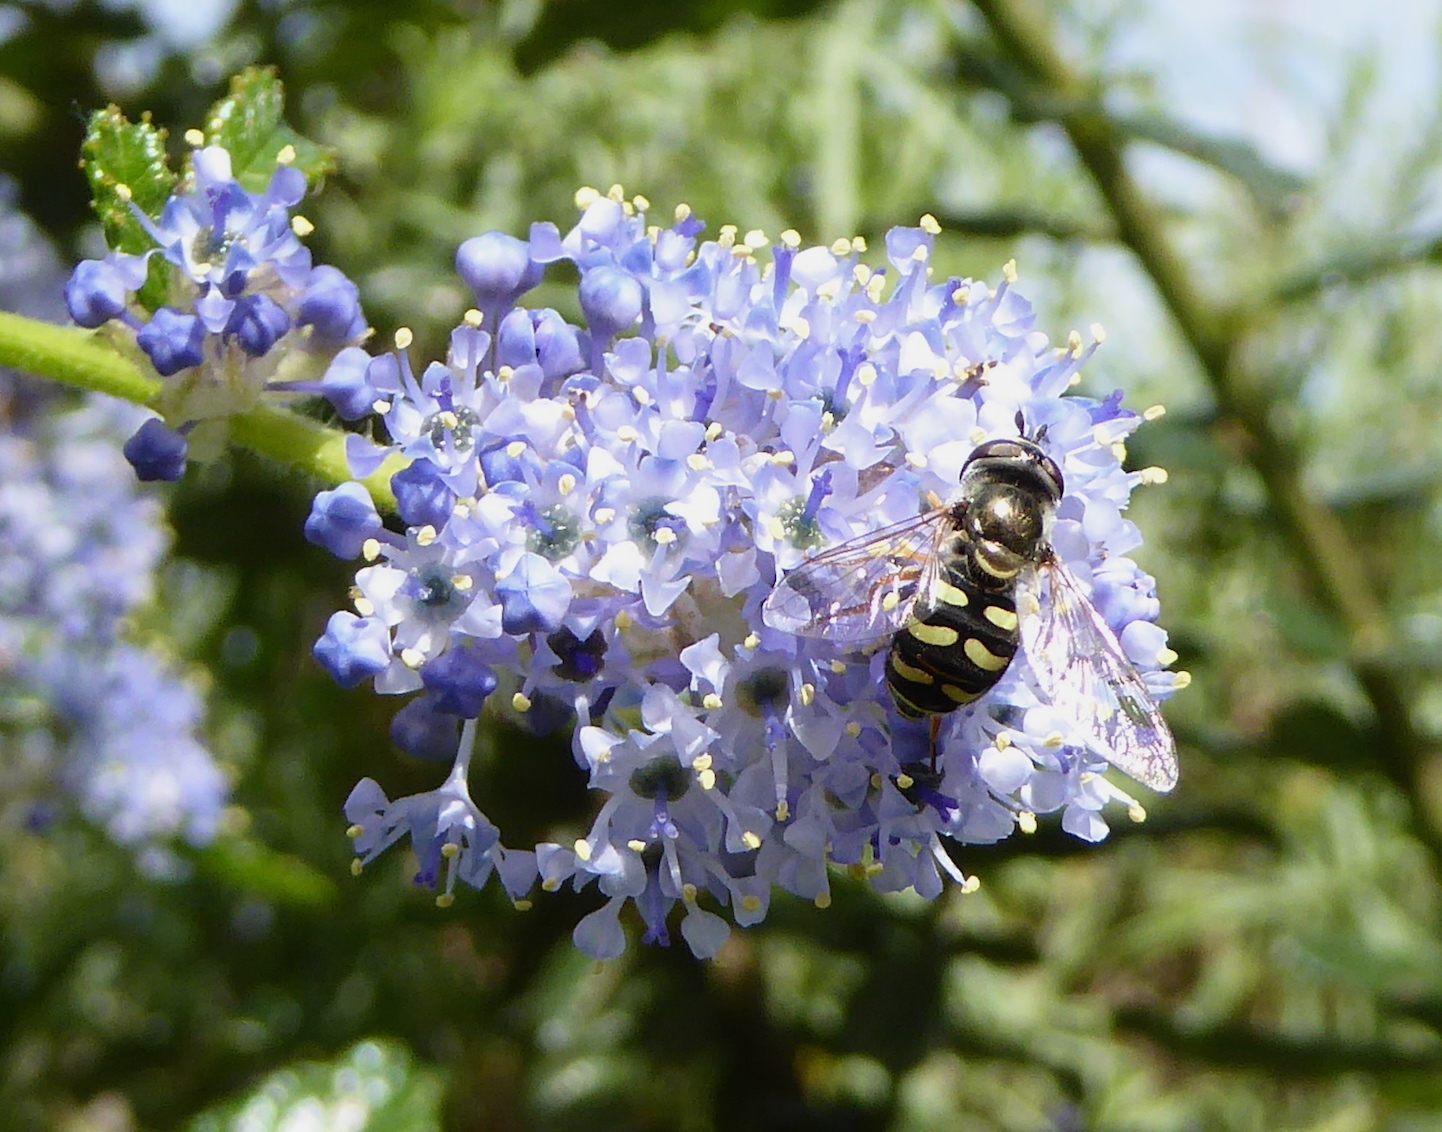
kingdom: Animalia
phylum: Arthropoda
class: Insecta
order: Diptera
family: Syrphidae
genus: Eupeodes
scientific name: Eupeodes volucris
